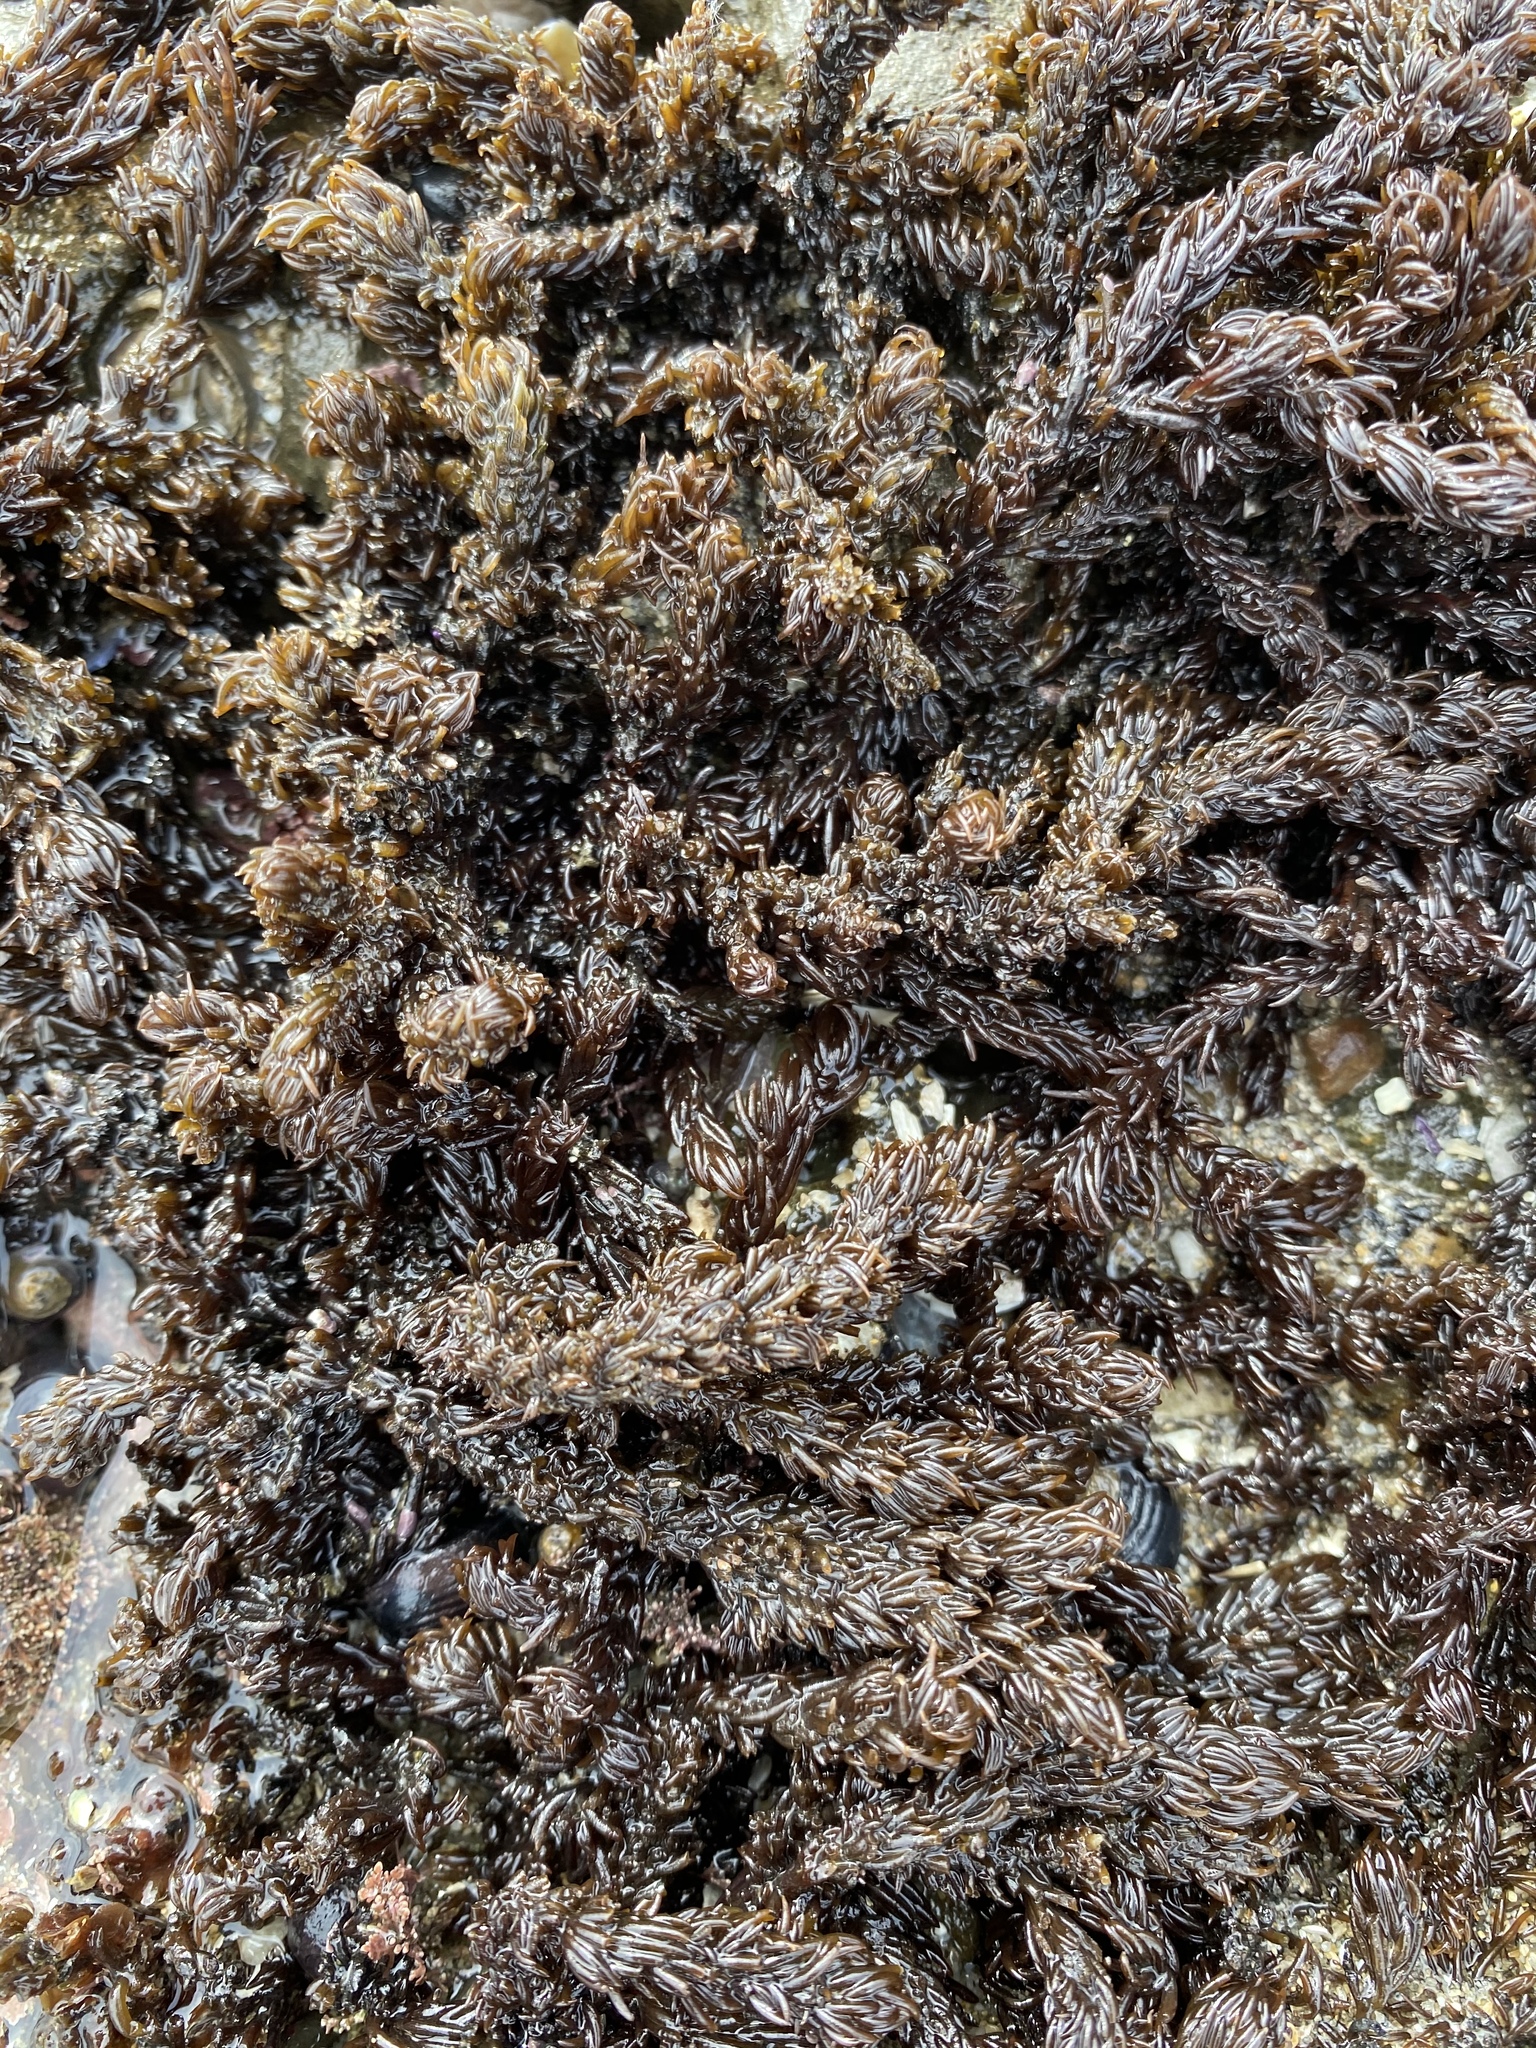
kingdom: Plantae
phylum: Rhodophyta
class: Florideophyceae
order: Ceramiales
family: Rhodomelaceae
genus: Neorhodomela
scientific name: Neorhodomela larix
